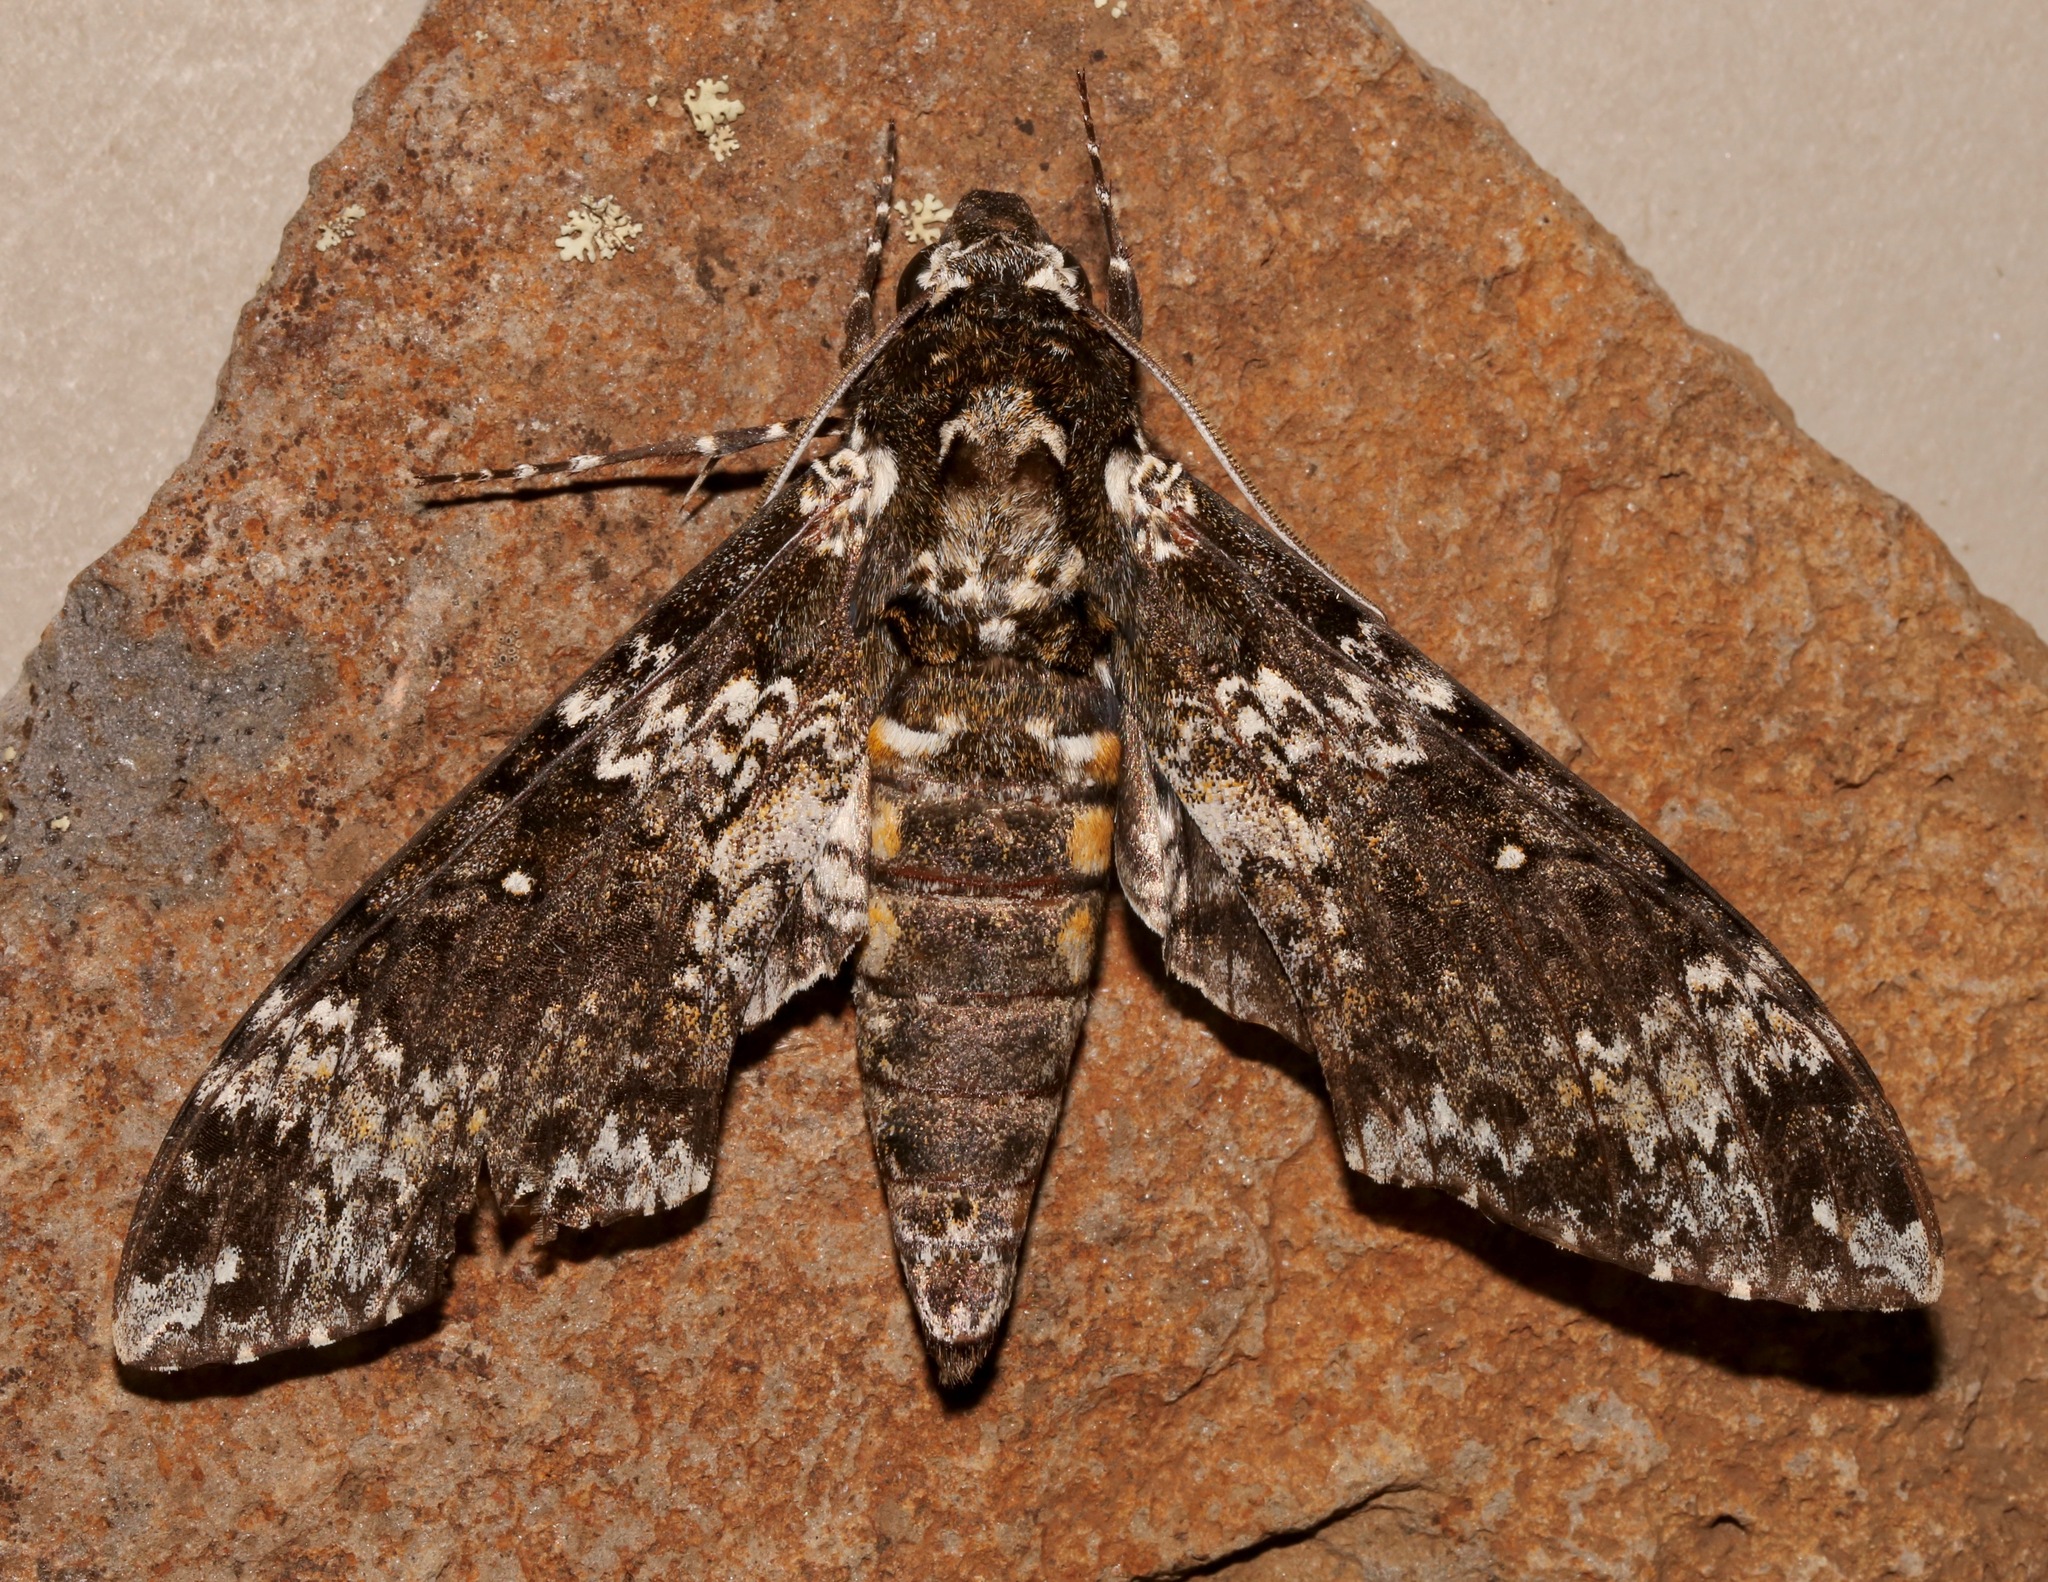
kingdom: Animalia
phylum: Arthropoda
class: Insecta
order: Lepidoptera
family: Sphingidae
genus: Manduca
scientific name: Manduca rustica
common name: Rustic sphinx
